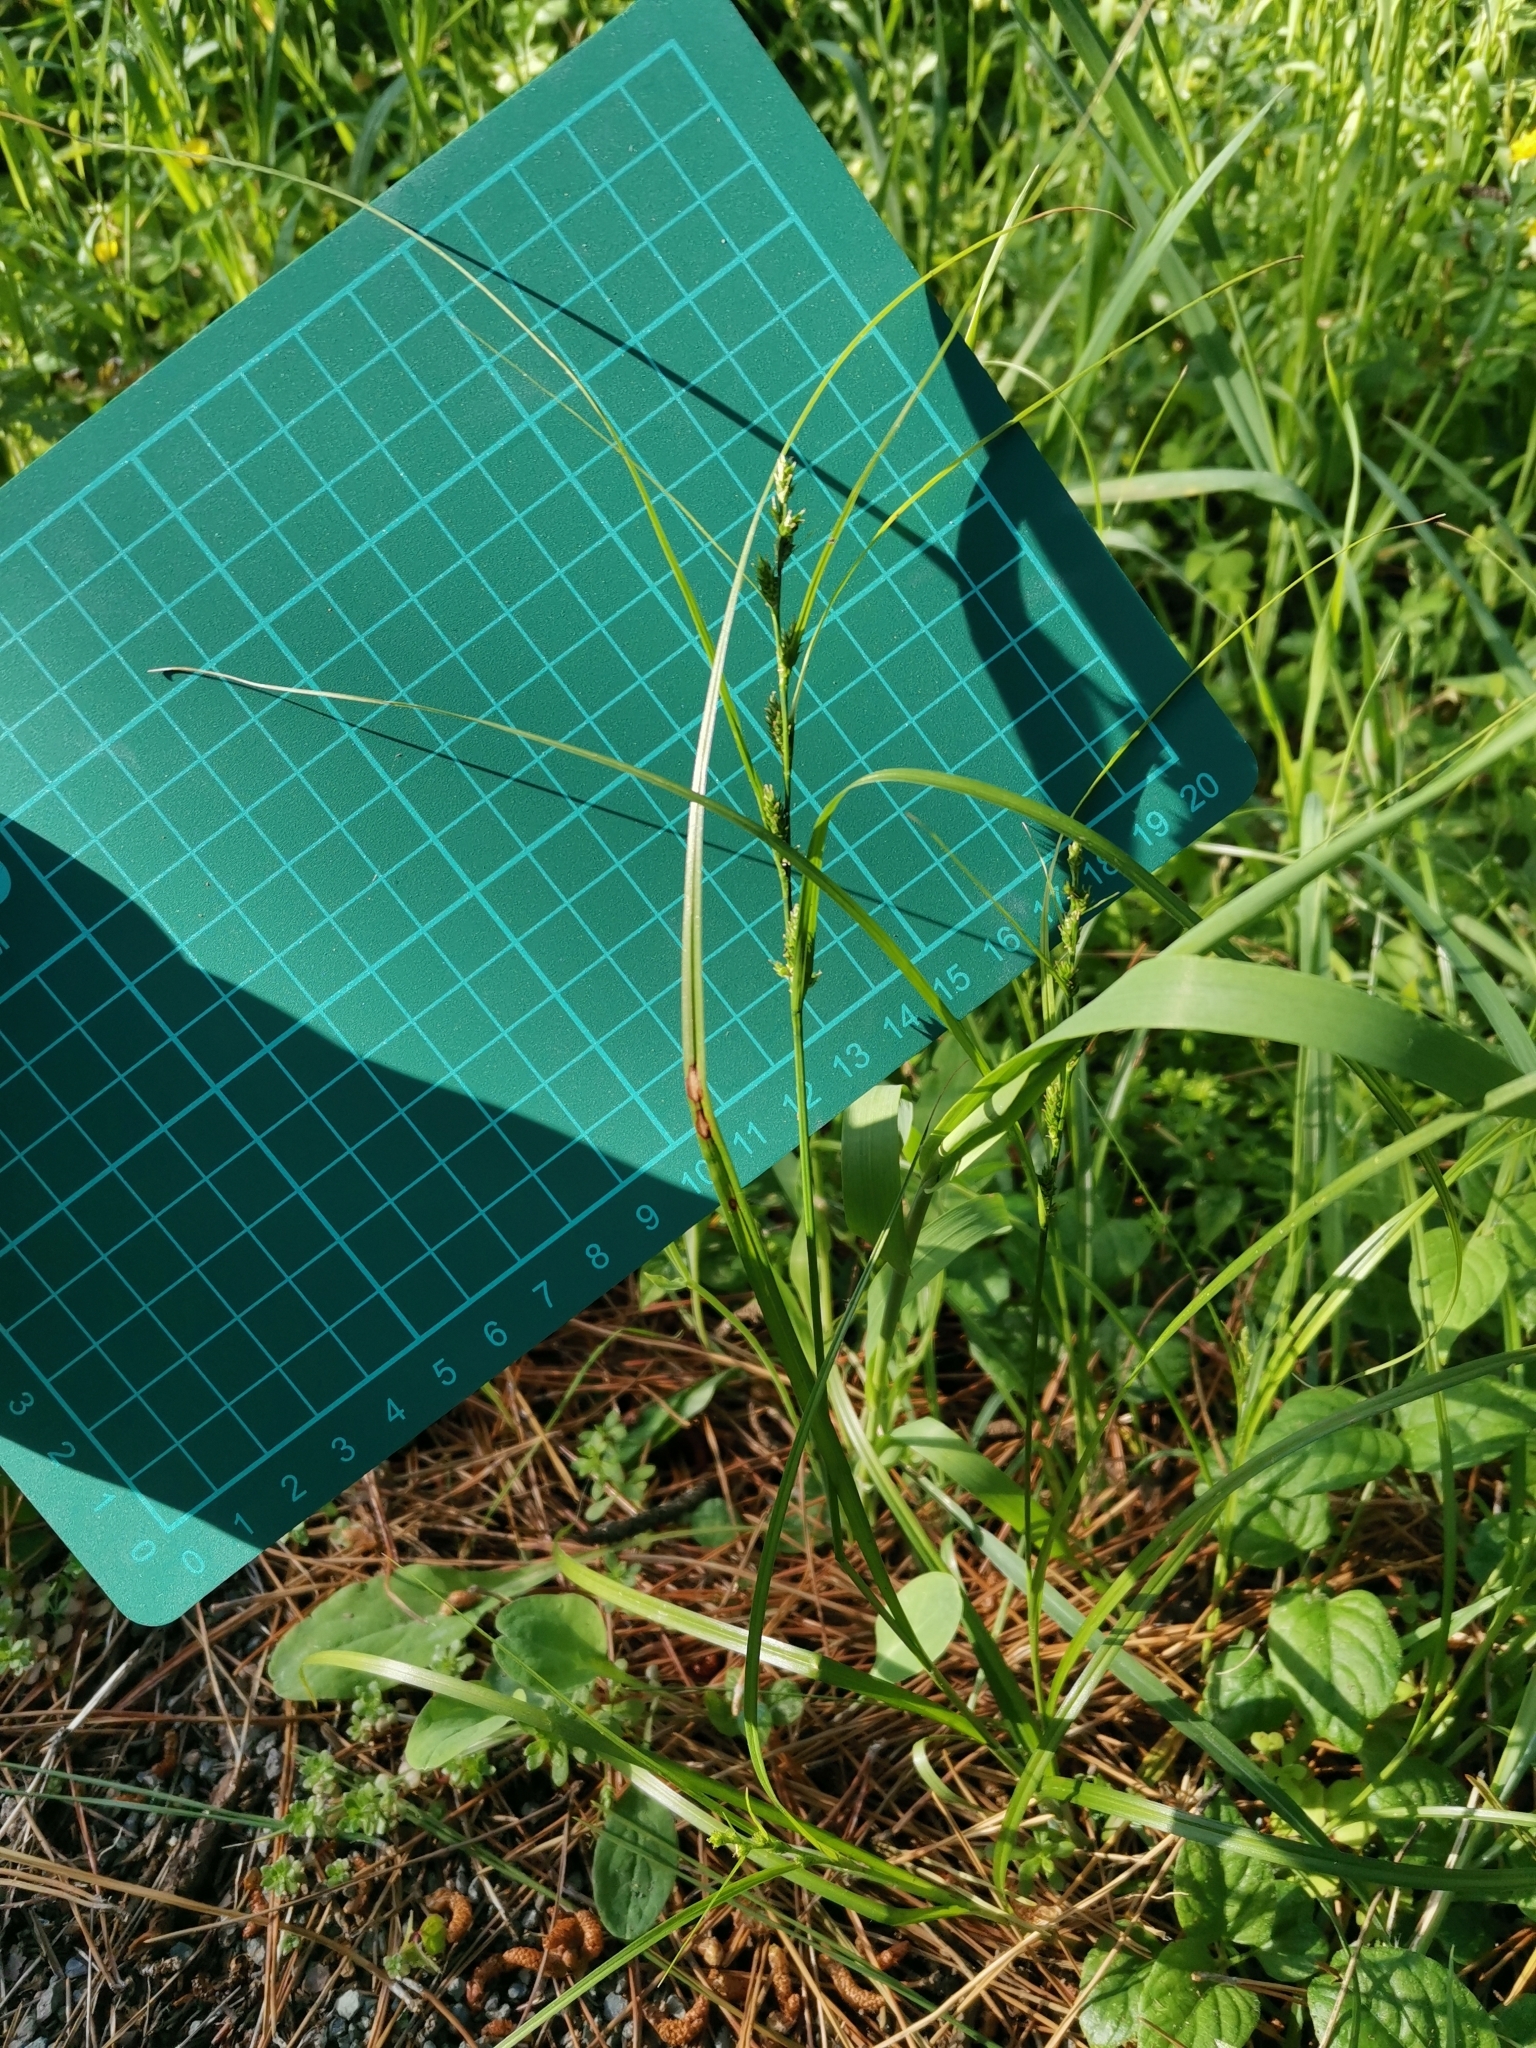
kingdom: Plantae
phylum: Tracheophyta
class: Liliopsida
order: Poales
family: Cyperaceae
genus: Carex
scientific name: Carex gibba
